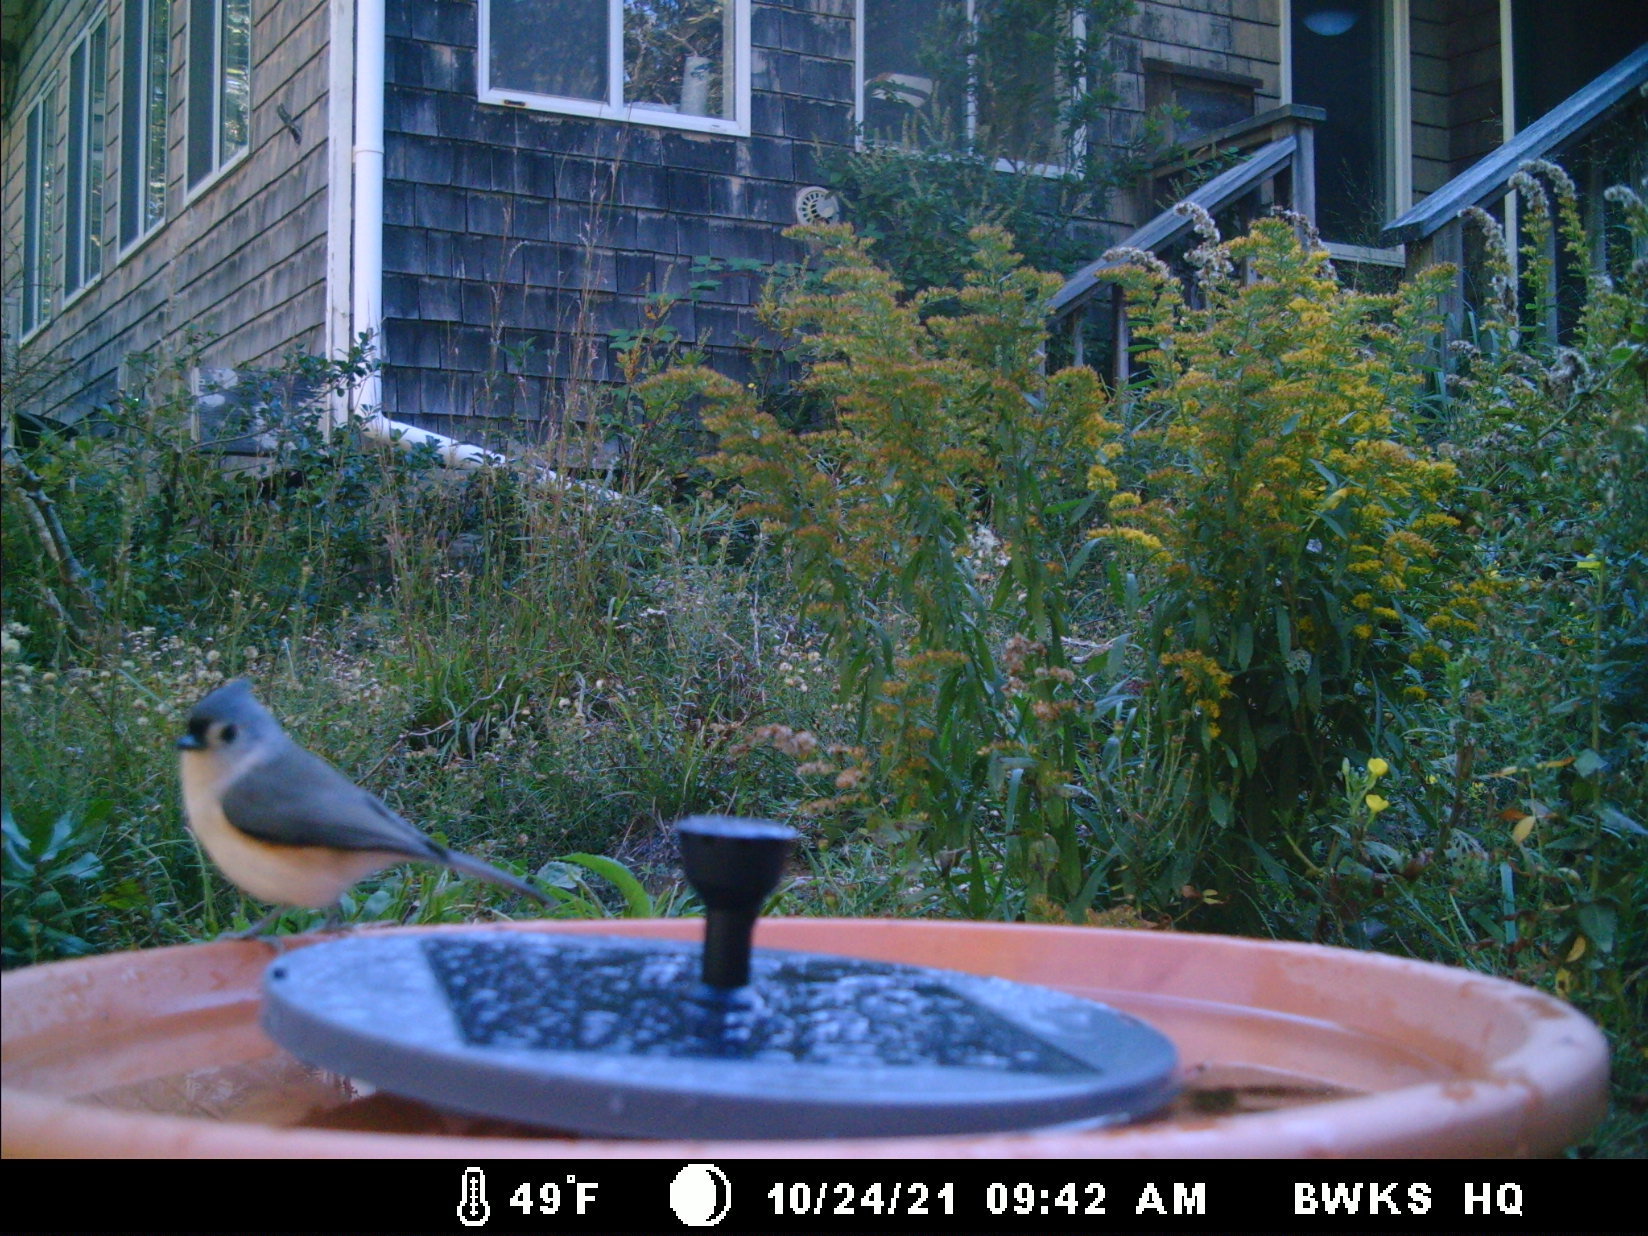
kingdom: Animalia
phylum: Chordata
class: Aves
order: Passeriformes
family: Paridae
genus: Baeolophus
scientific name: Baeolophus bicolor
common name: Tufted titmouse
